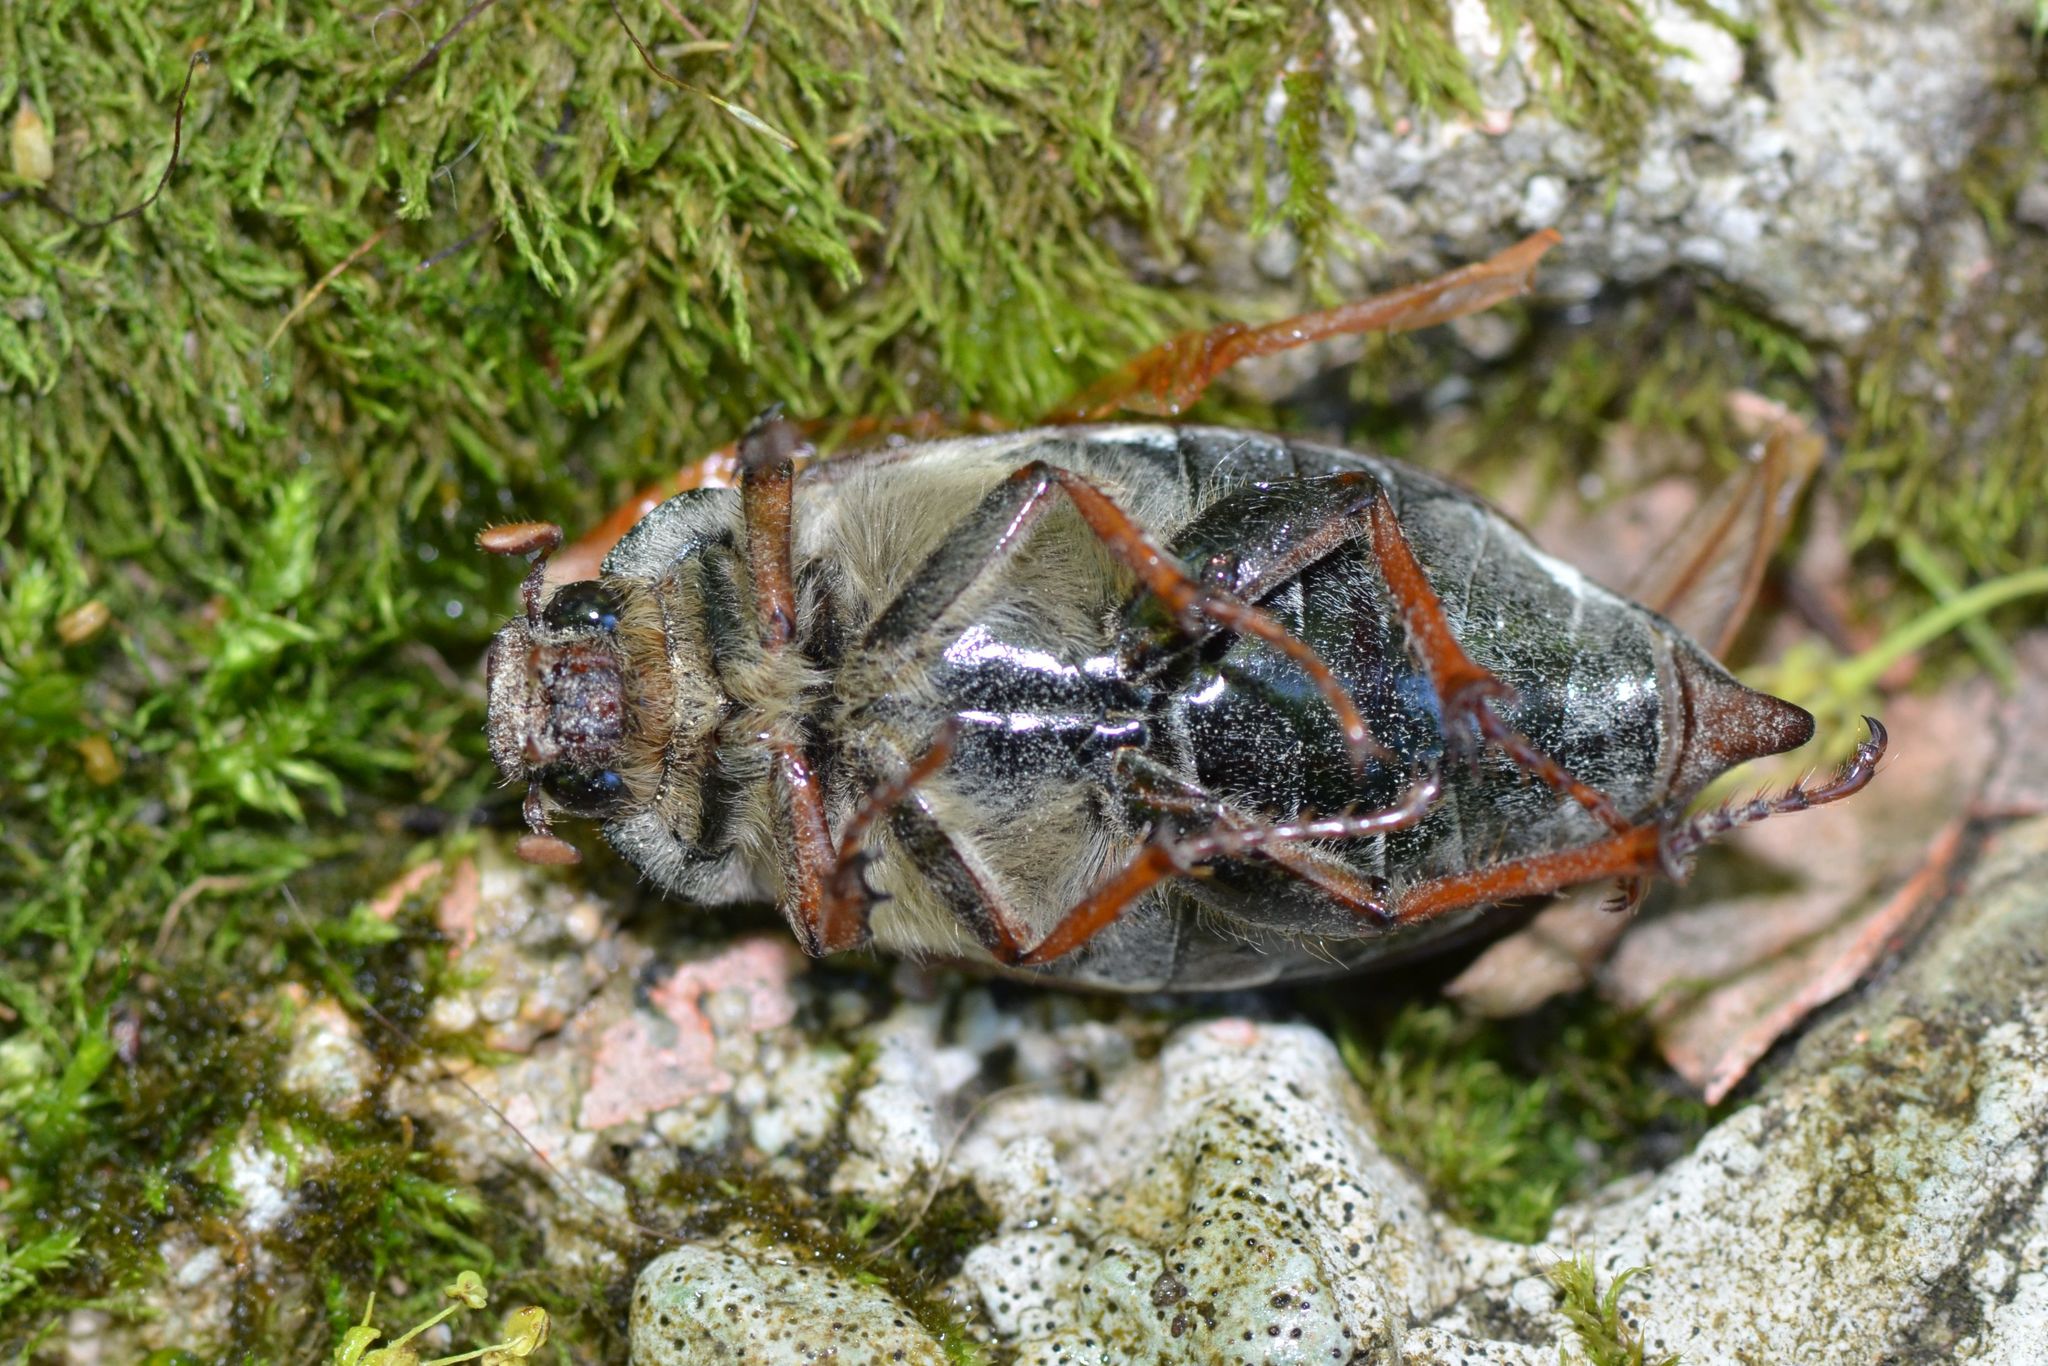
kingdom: Animalia
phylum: Arthropoda
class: Insecta
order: Coleoptera
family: Scarabaeidae
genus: Melolontha
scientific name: Melolontha melolontha
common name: Cockchafer maybeetle
